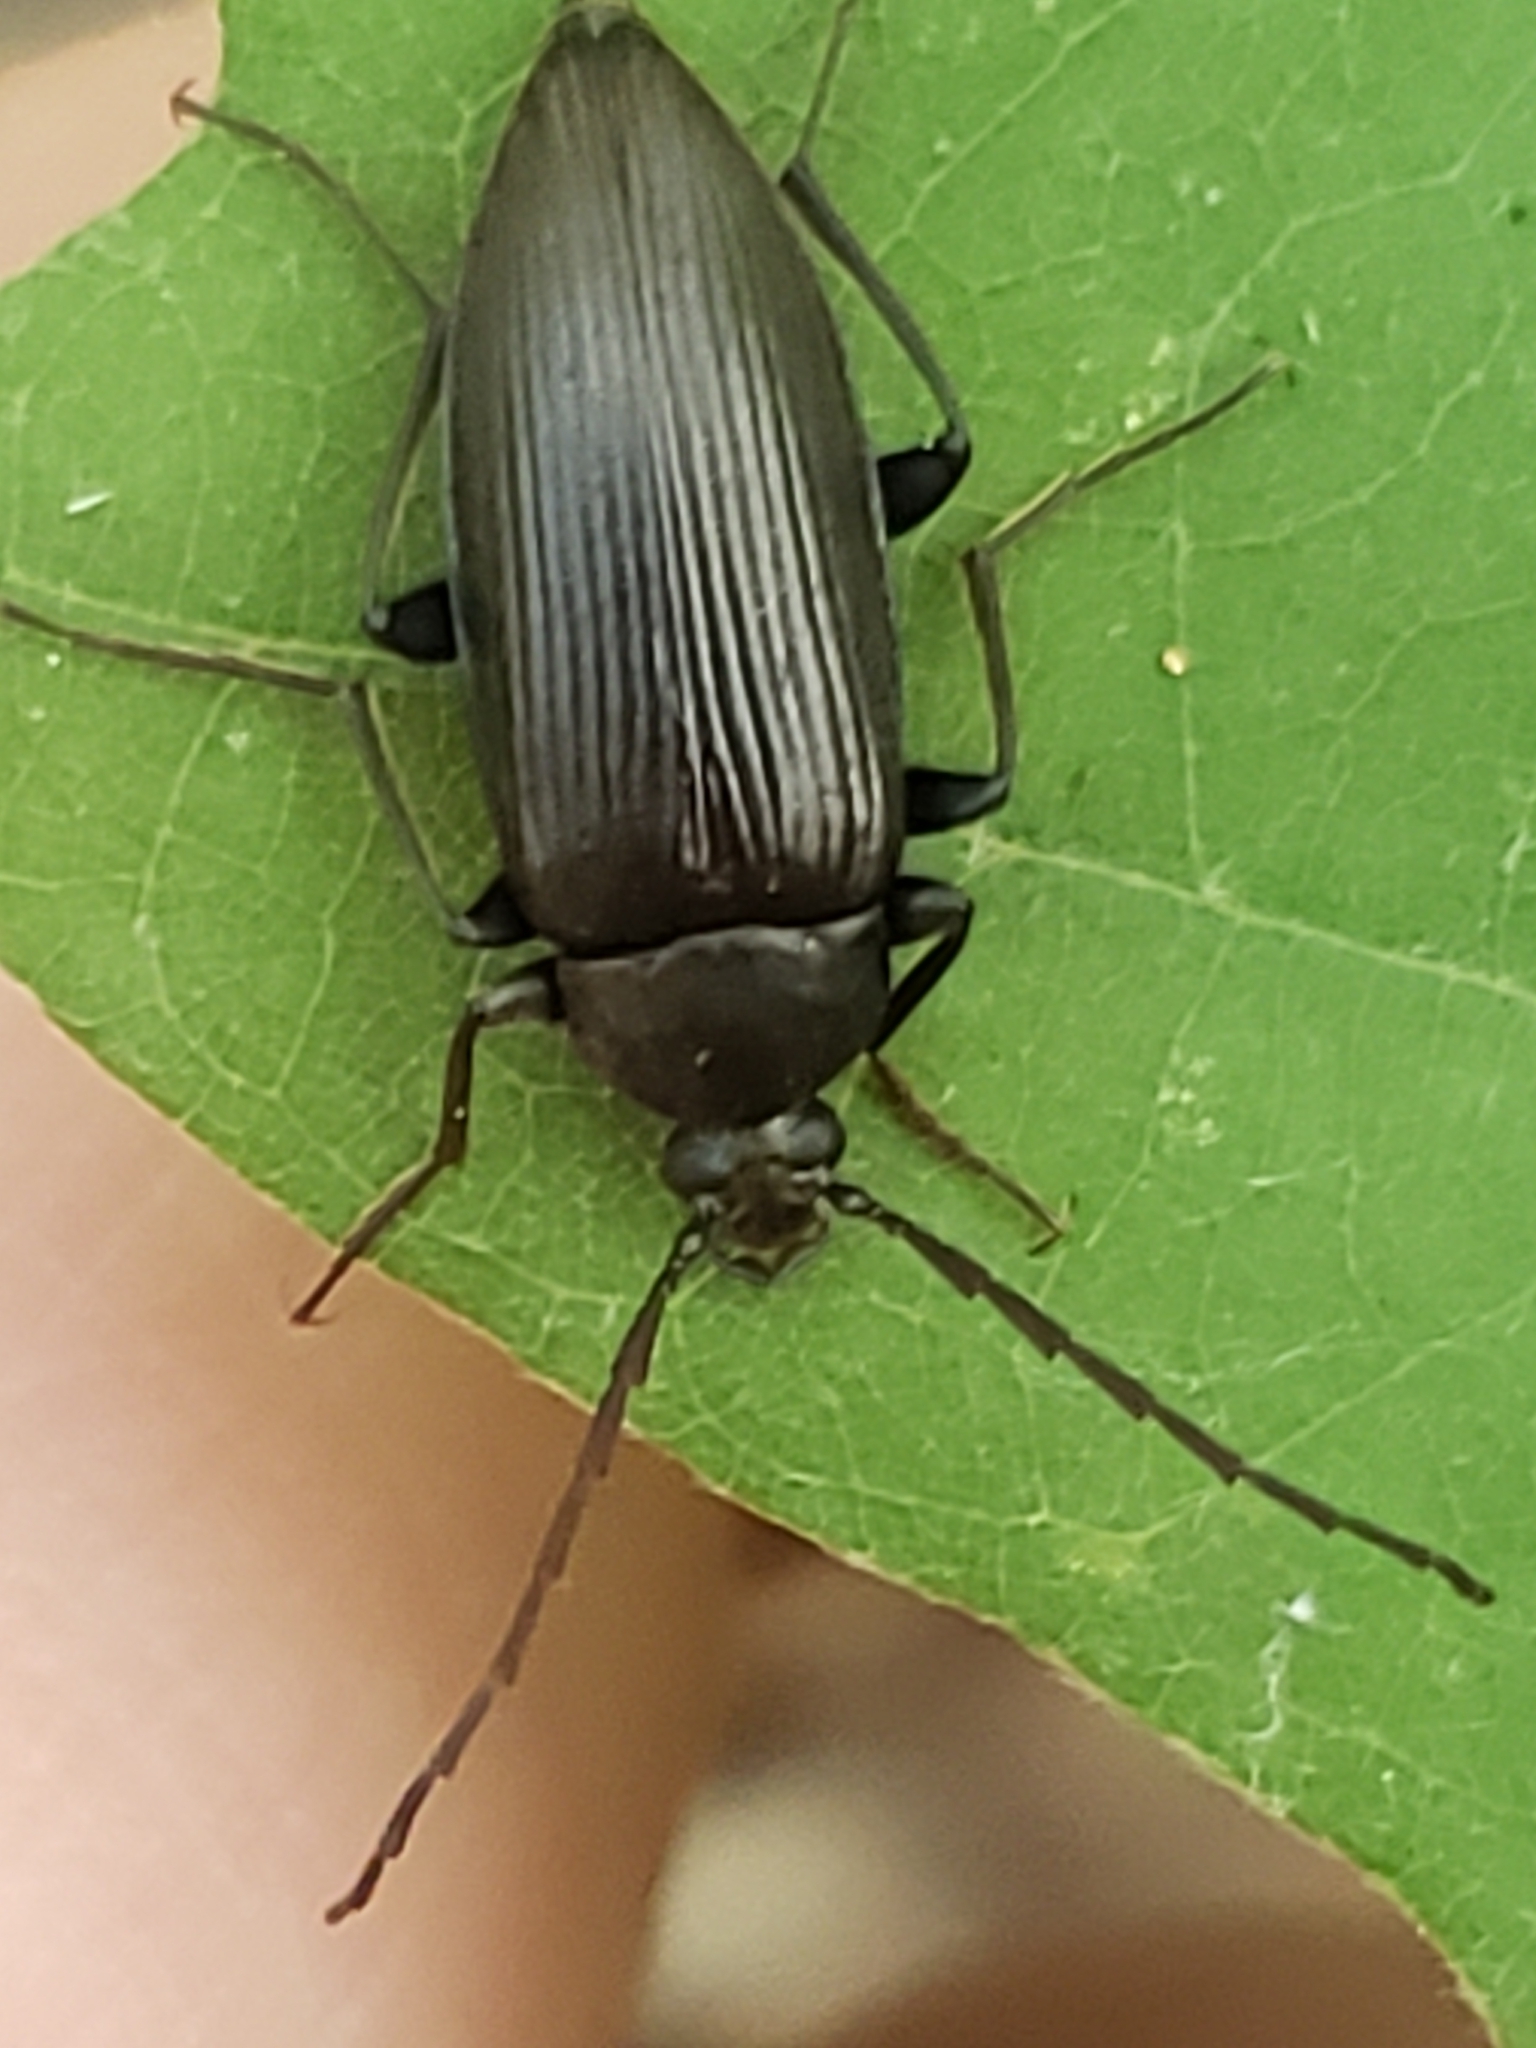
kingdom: Animalia
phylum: Arthropoda
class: Insecta
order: Coleoptera
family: Tenebrionidae
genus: Capnochroa
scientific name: Capnochroa fuliginosa
